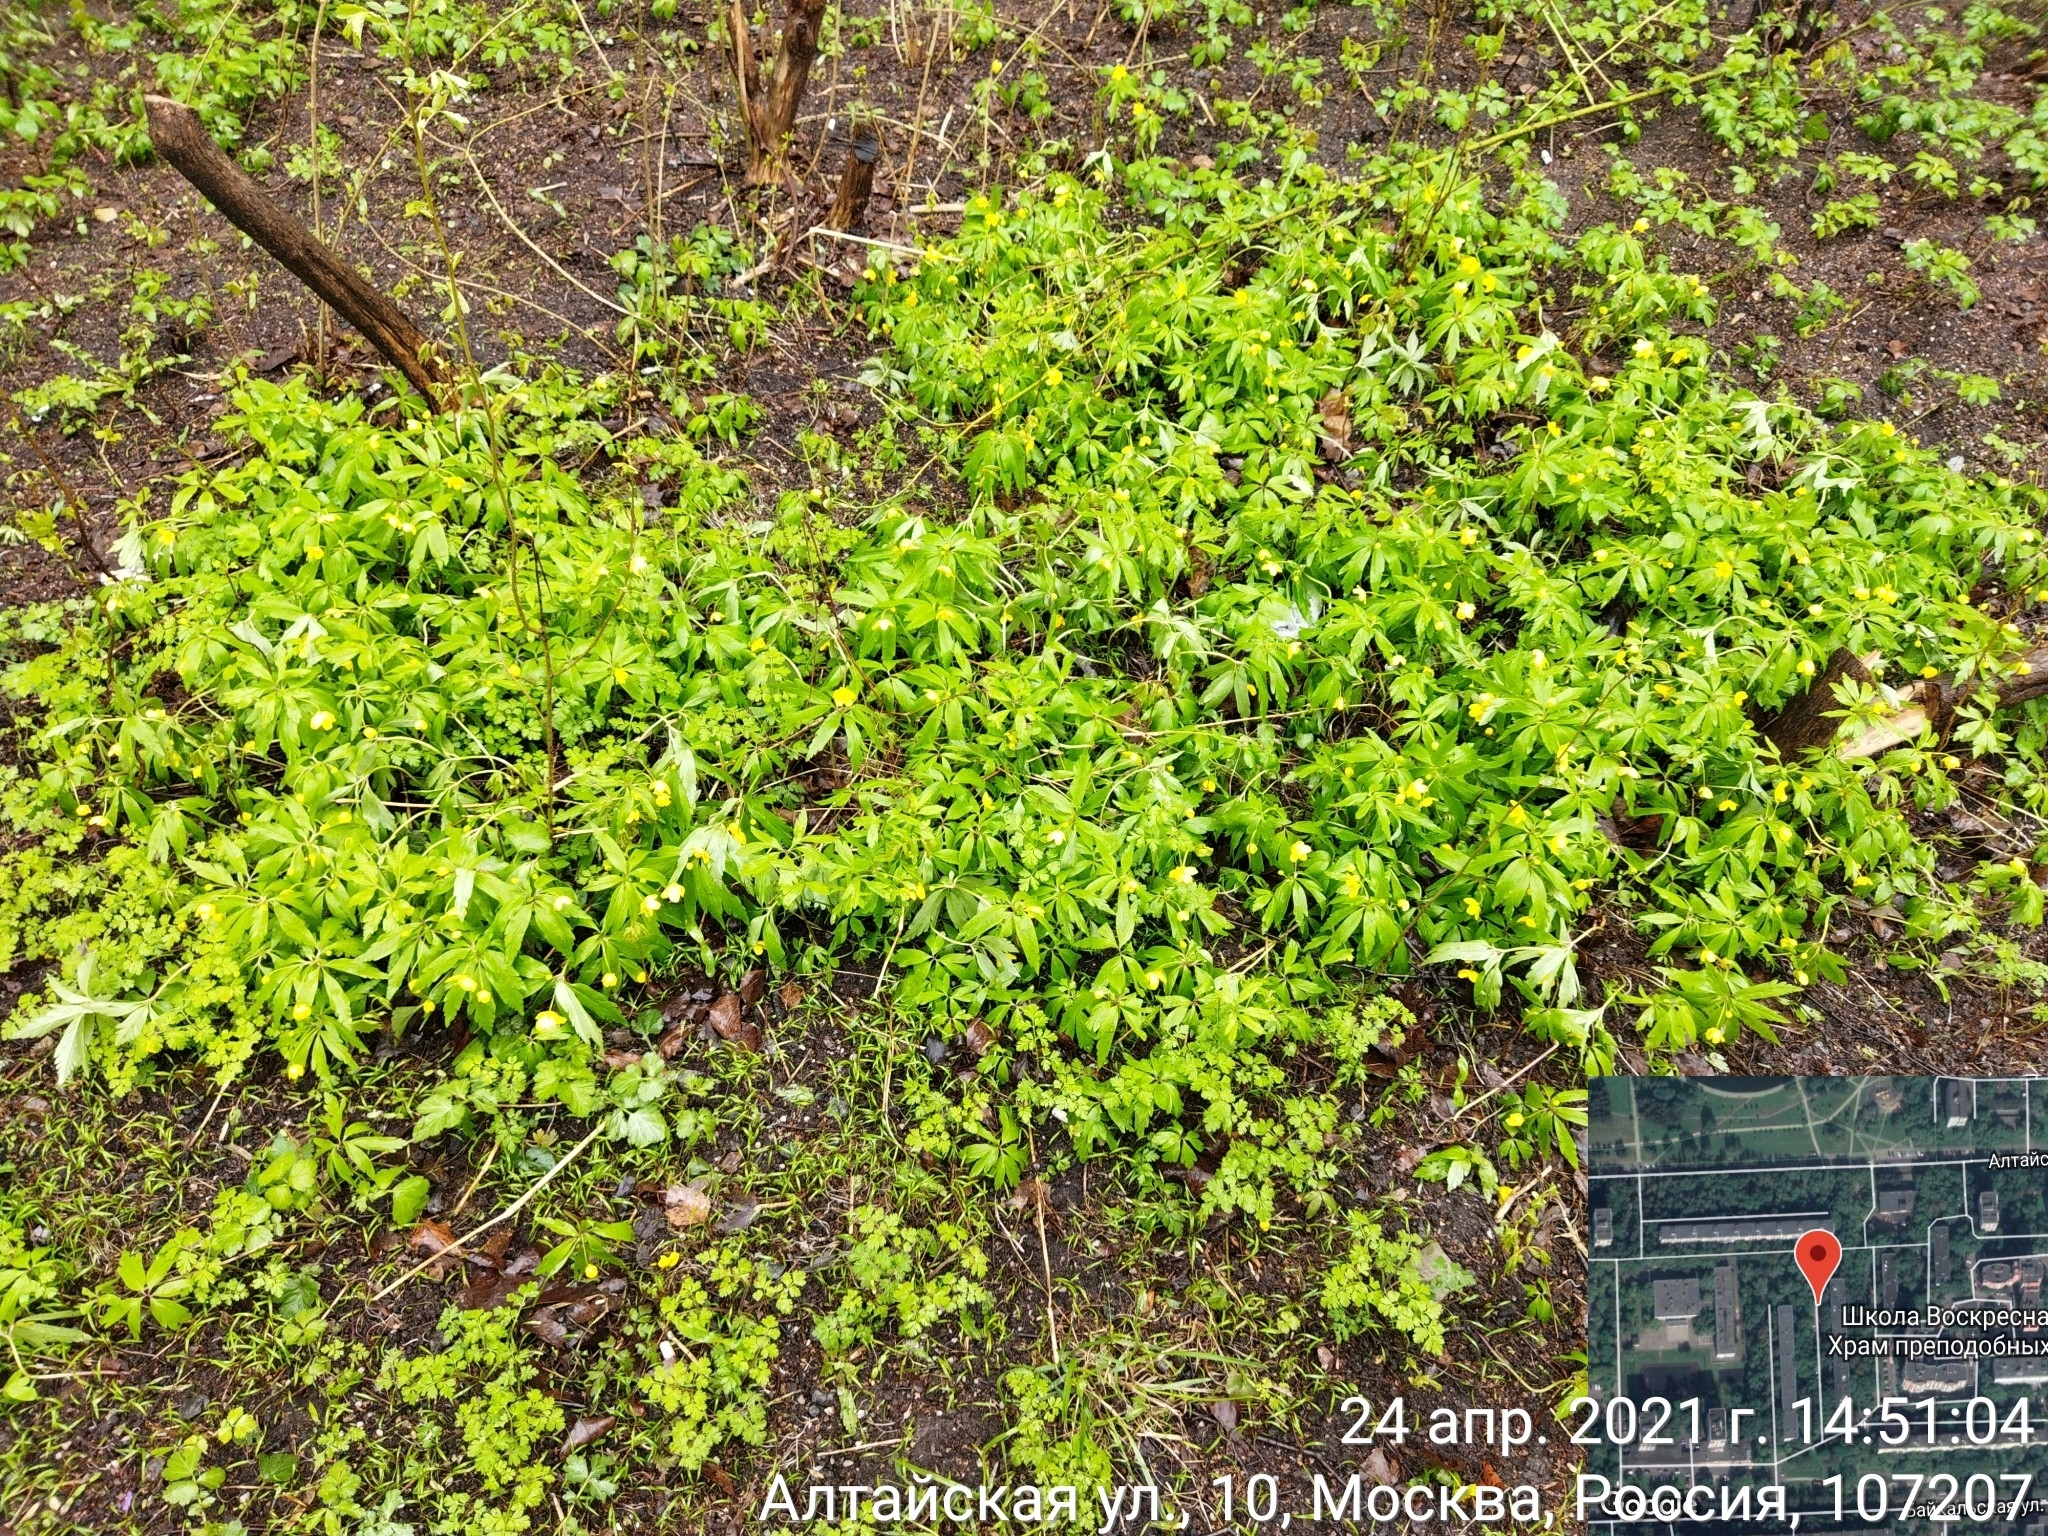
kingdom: Plantae
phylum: Tracheophyta
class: Magnoliopsida
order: Ranunculales
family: Ranunculaceae
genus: Anemone
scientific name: Anemone ranunculoides
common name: Yellow anemone
